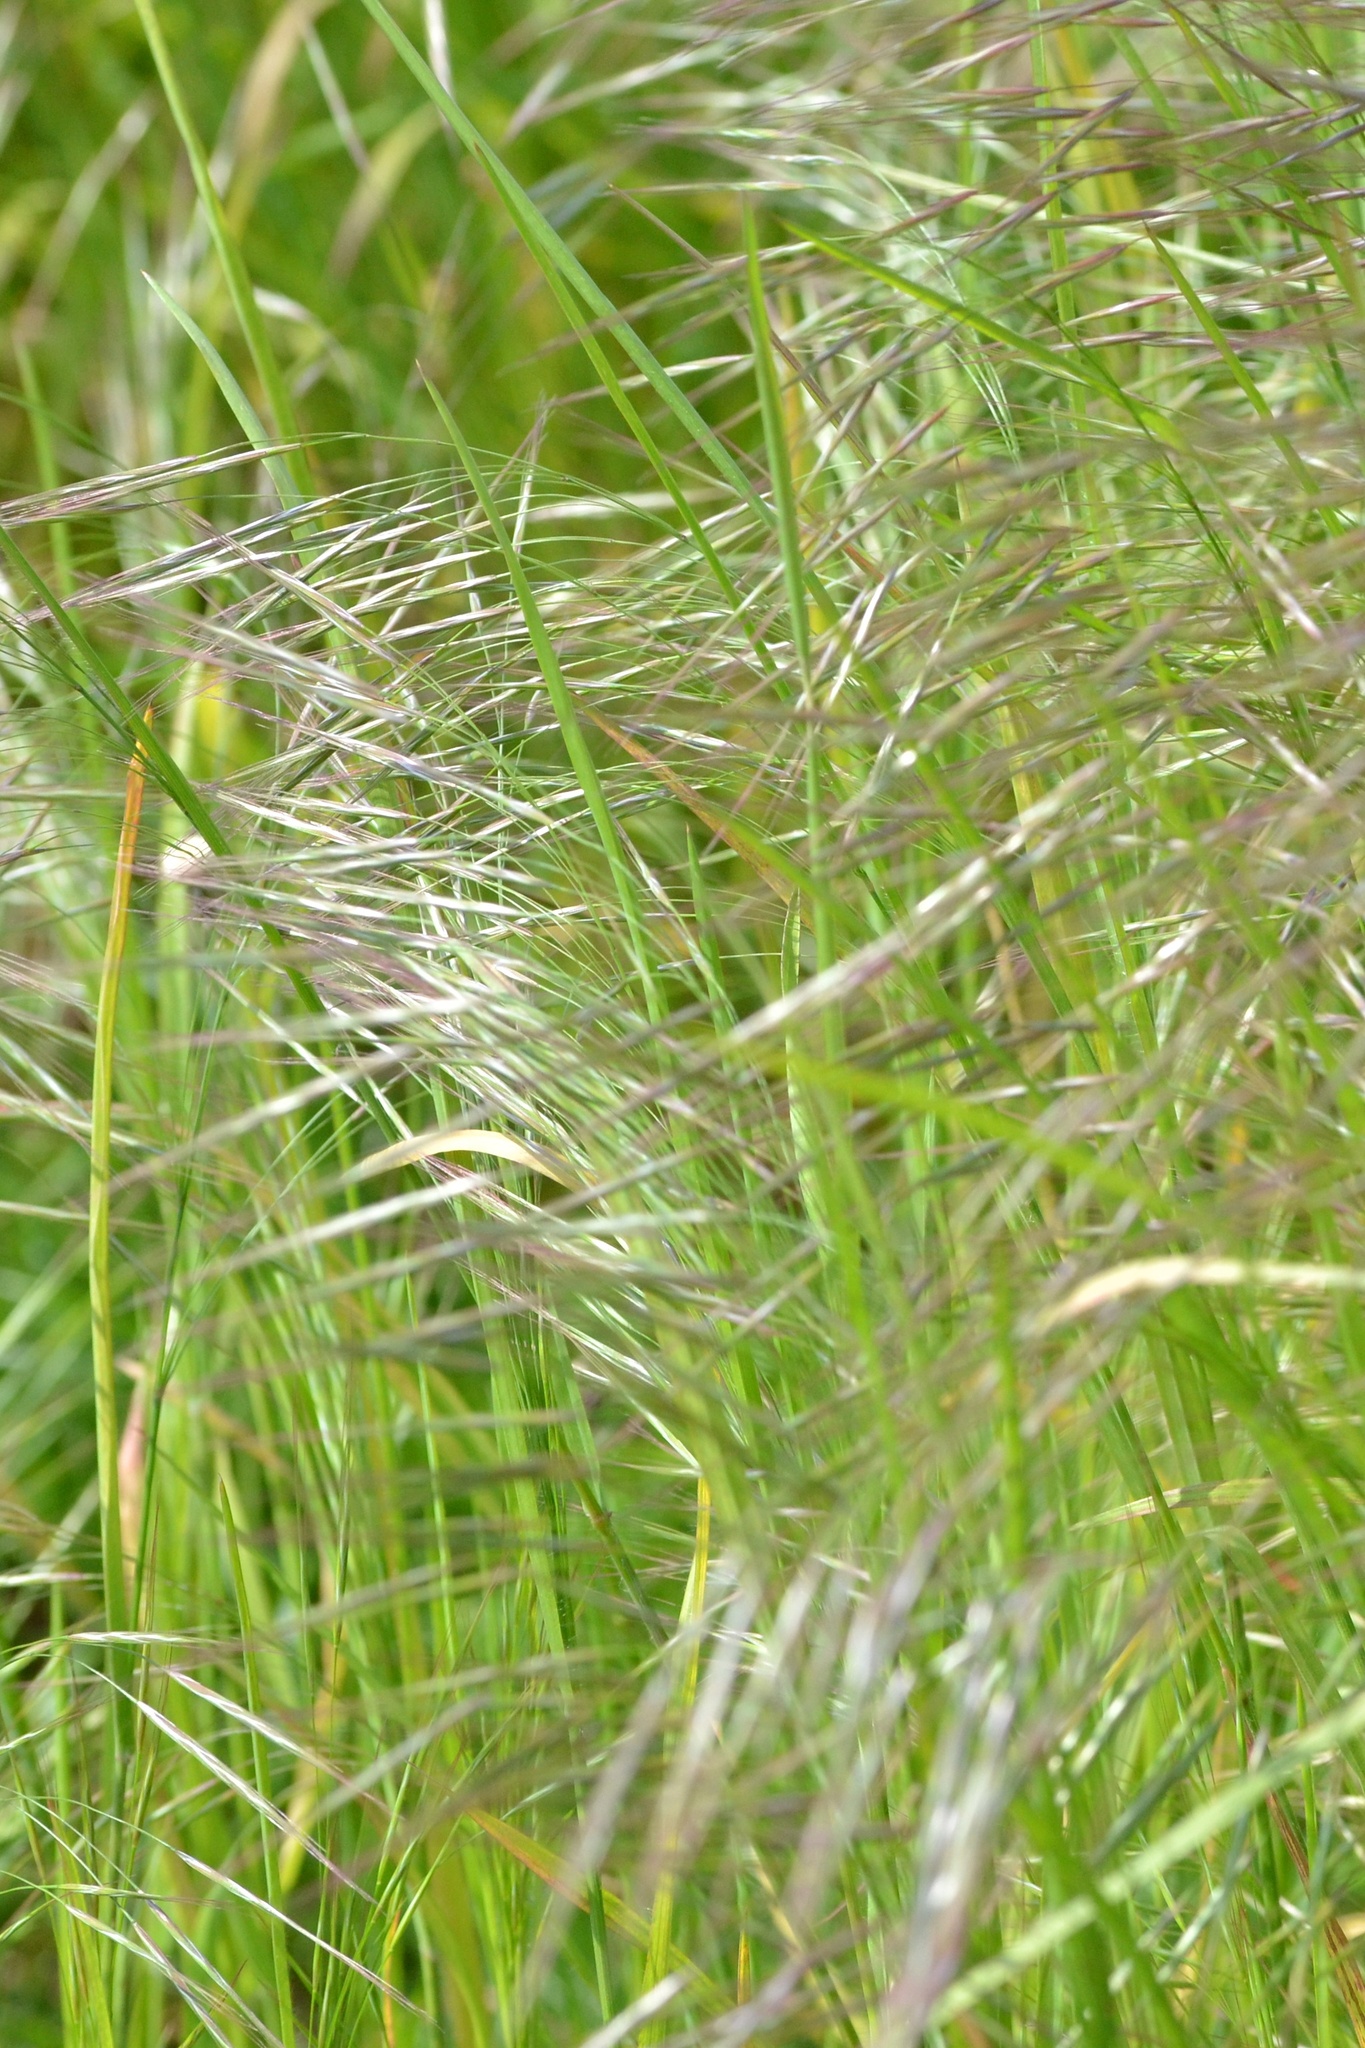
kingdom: Plantae
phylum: Tracheophyta
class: Liliopsida
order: Poales
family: Poaceae
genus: Bromus
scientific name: Bromus sterilis
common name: Poverty brome
